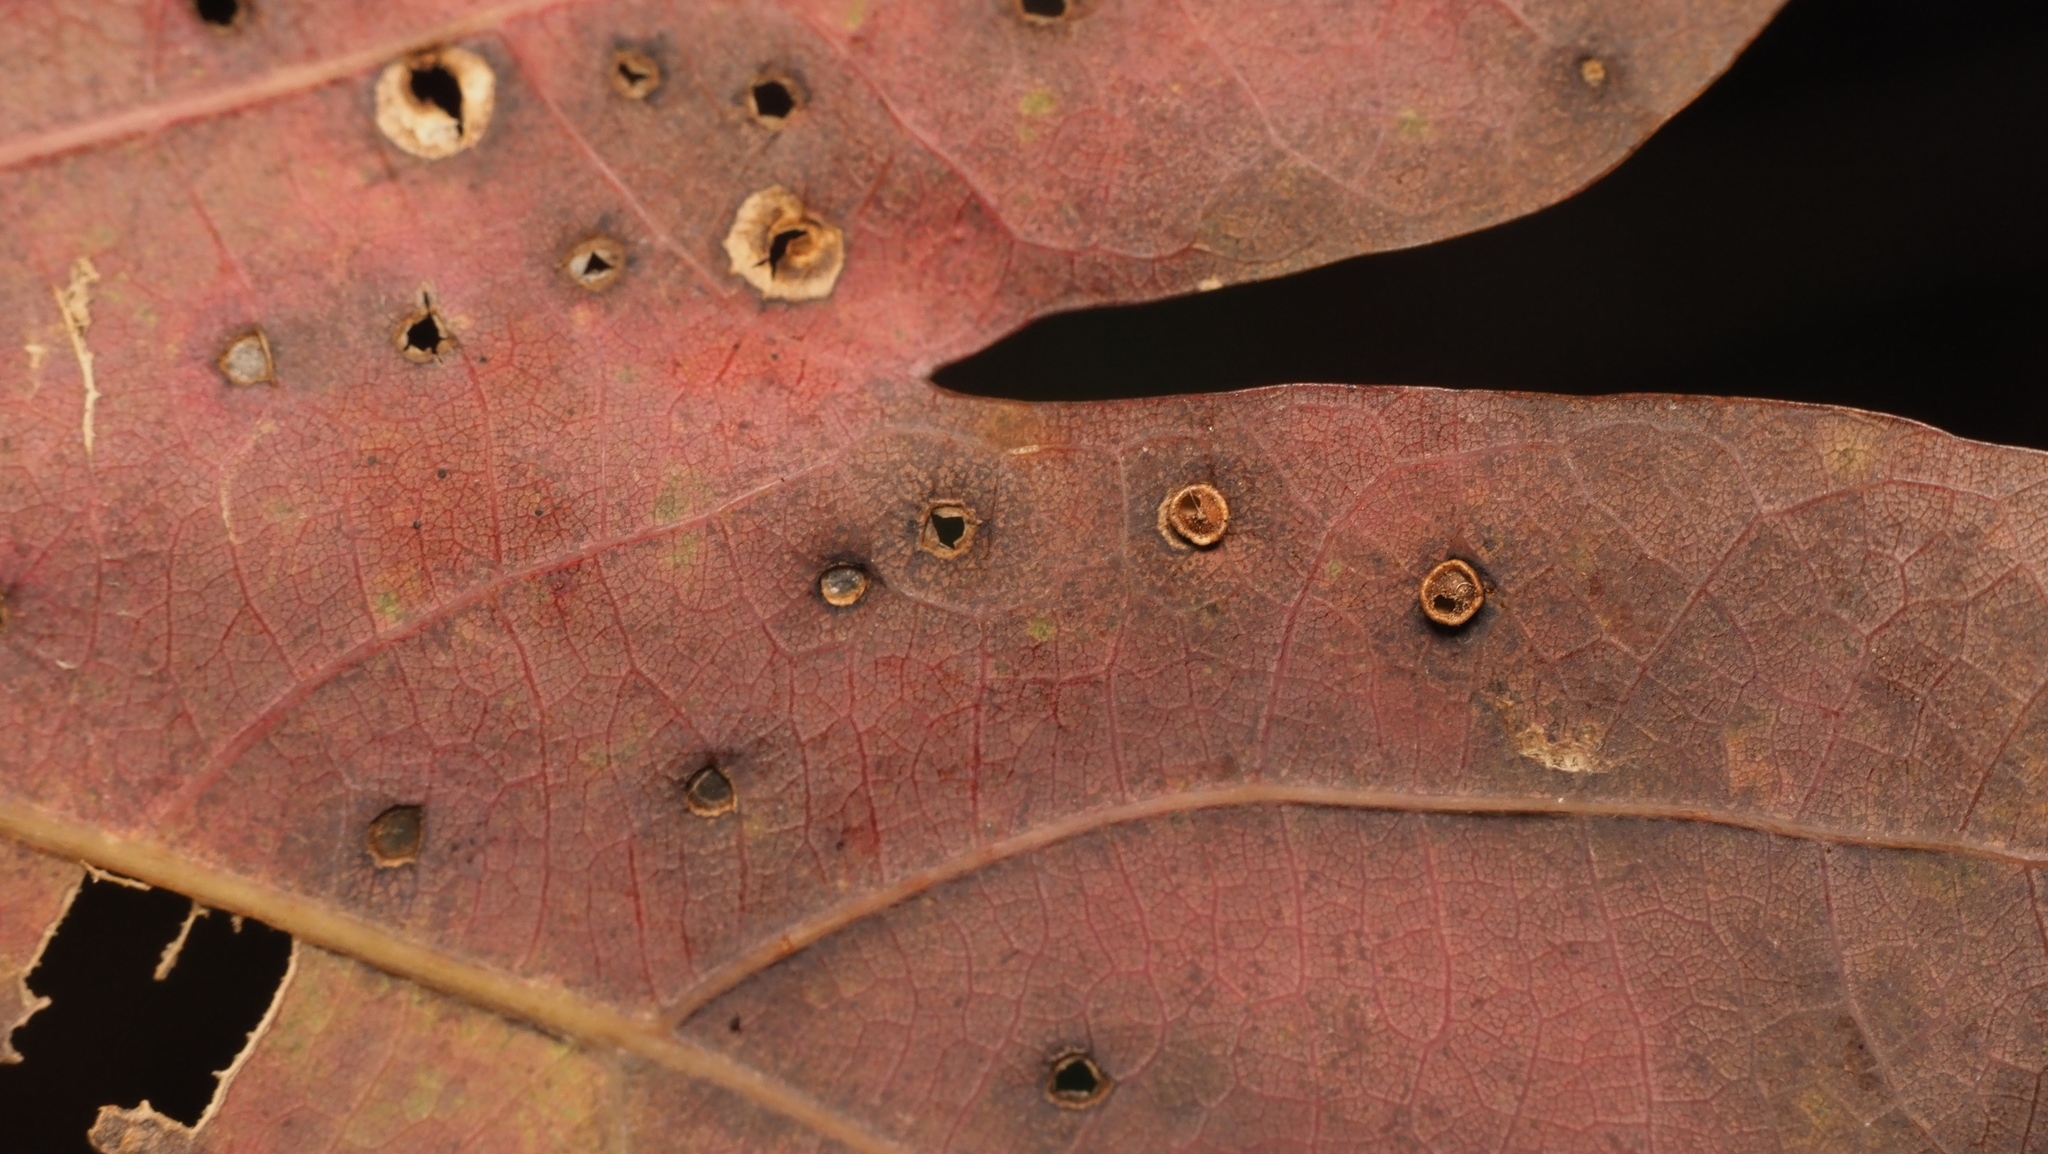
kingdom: Animalia
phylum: Arthropoda
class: Insecta
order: Hymenoptera
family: Cynipidae
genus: Neuroterus
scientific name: Neuroterus
